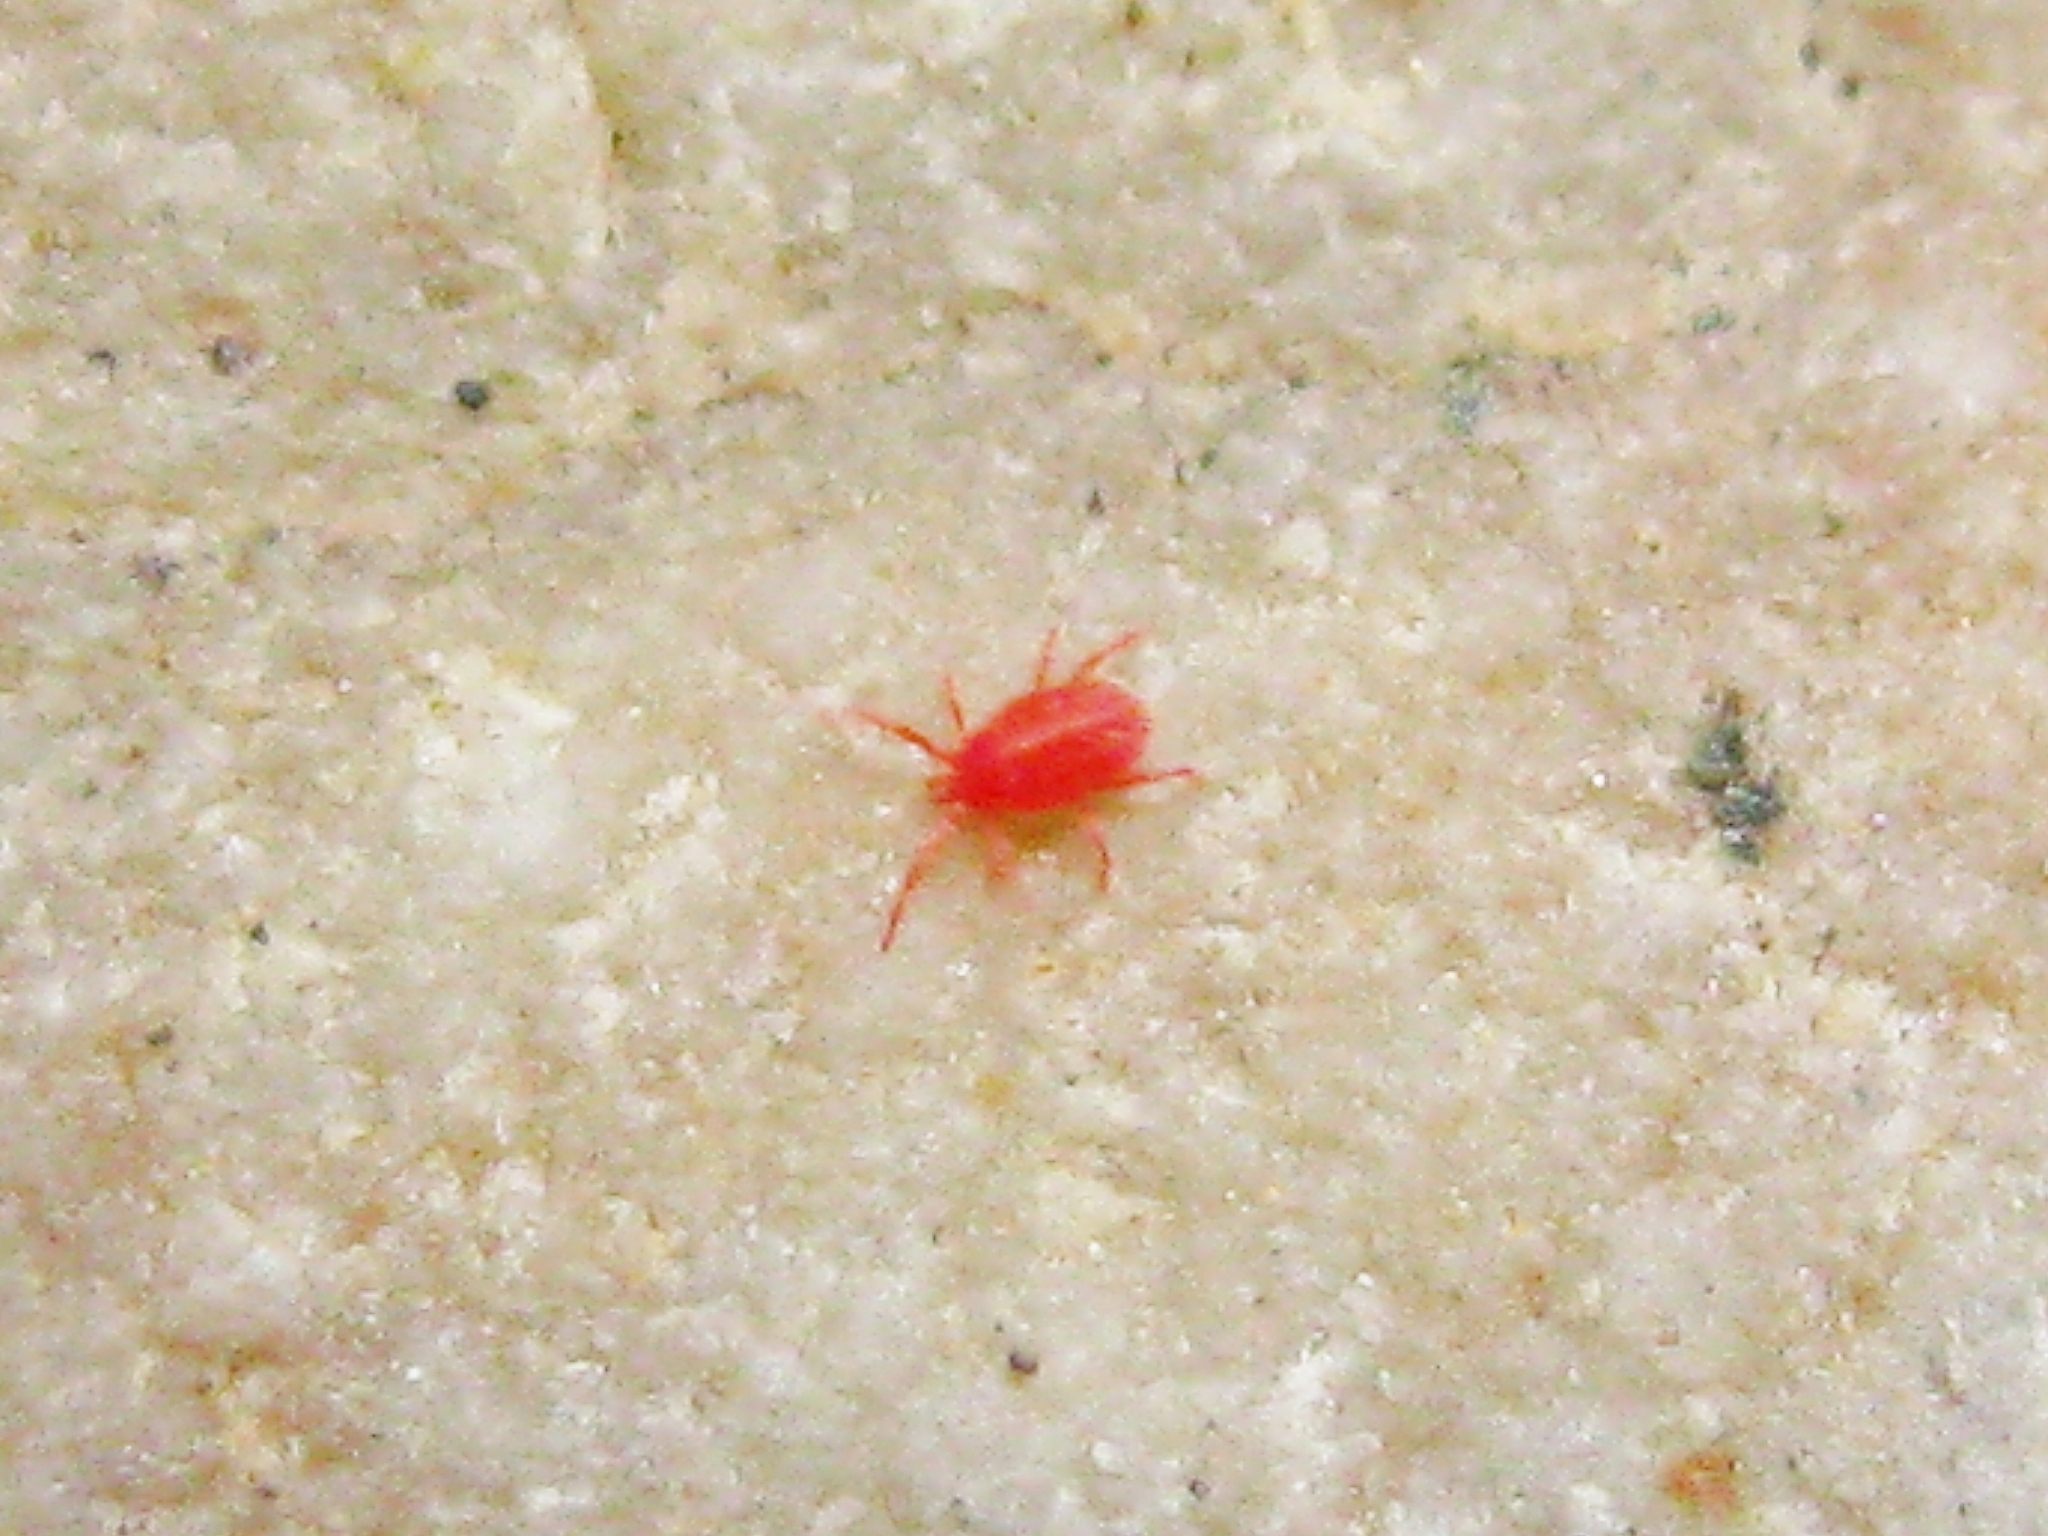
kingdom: Animalia
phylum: Arthropoda
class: Arachnida
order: Trombidiformes
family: Erythraeidae
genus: Balaustium
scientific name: Balaustium
